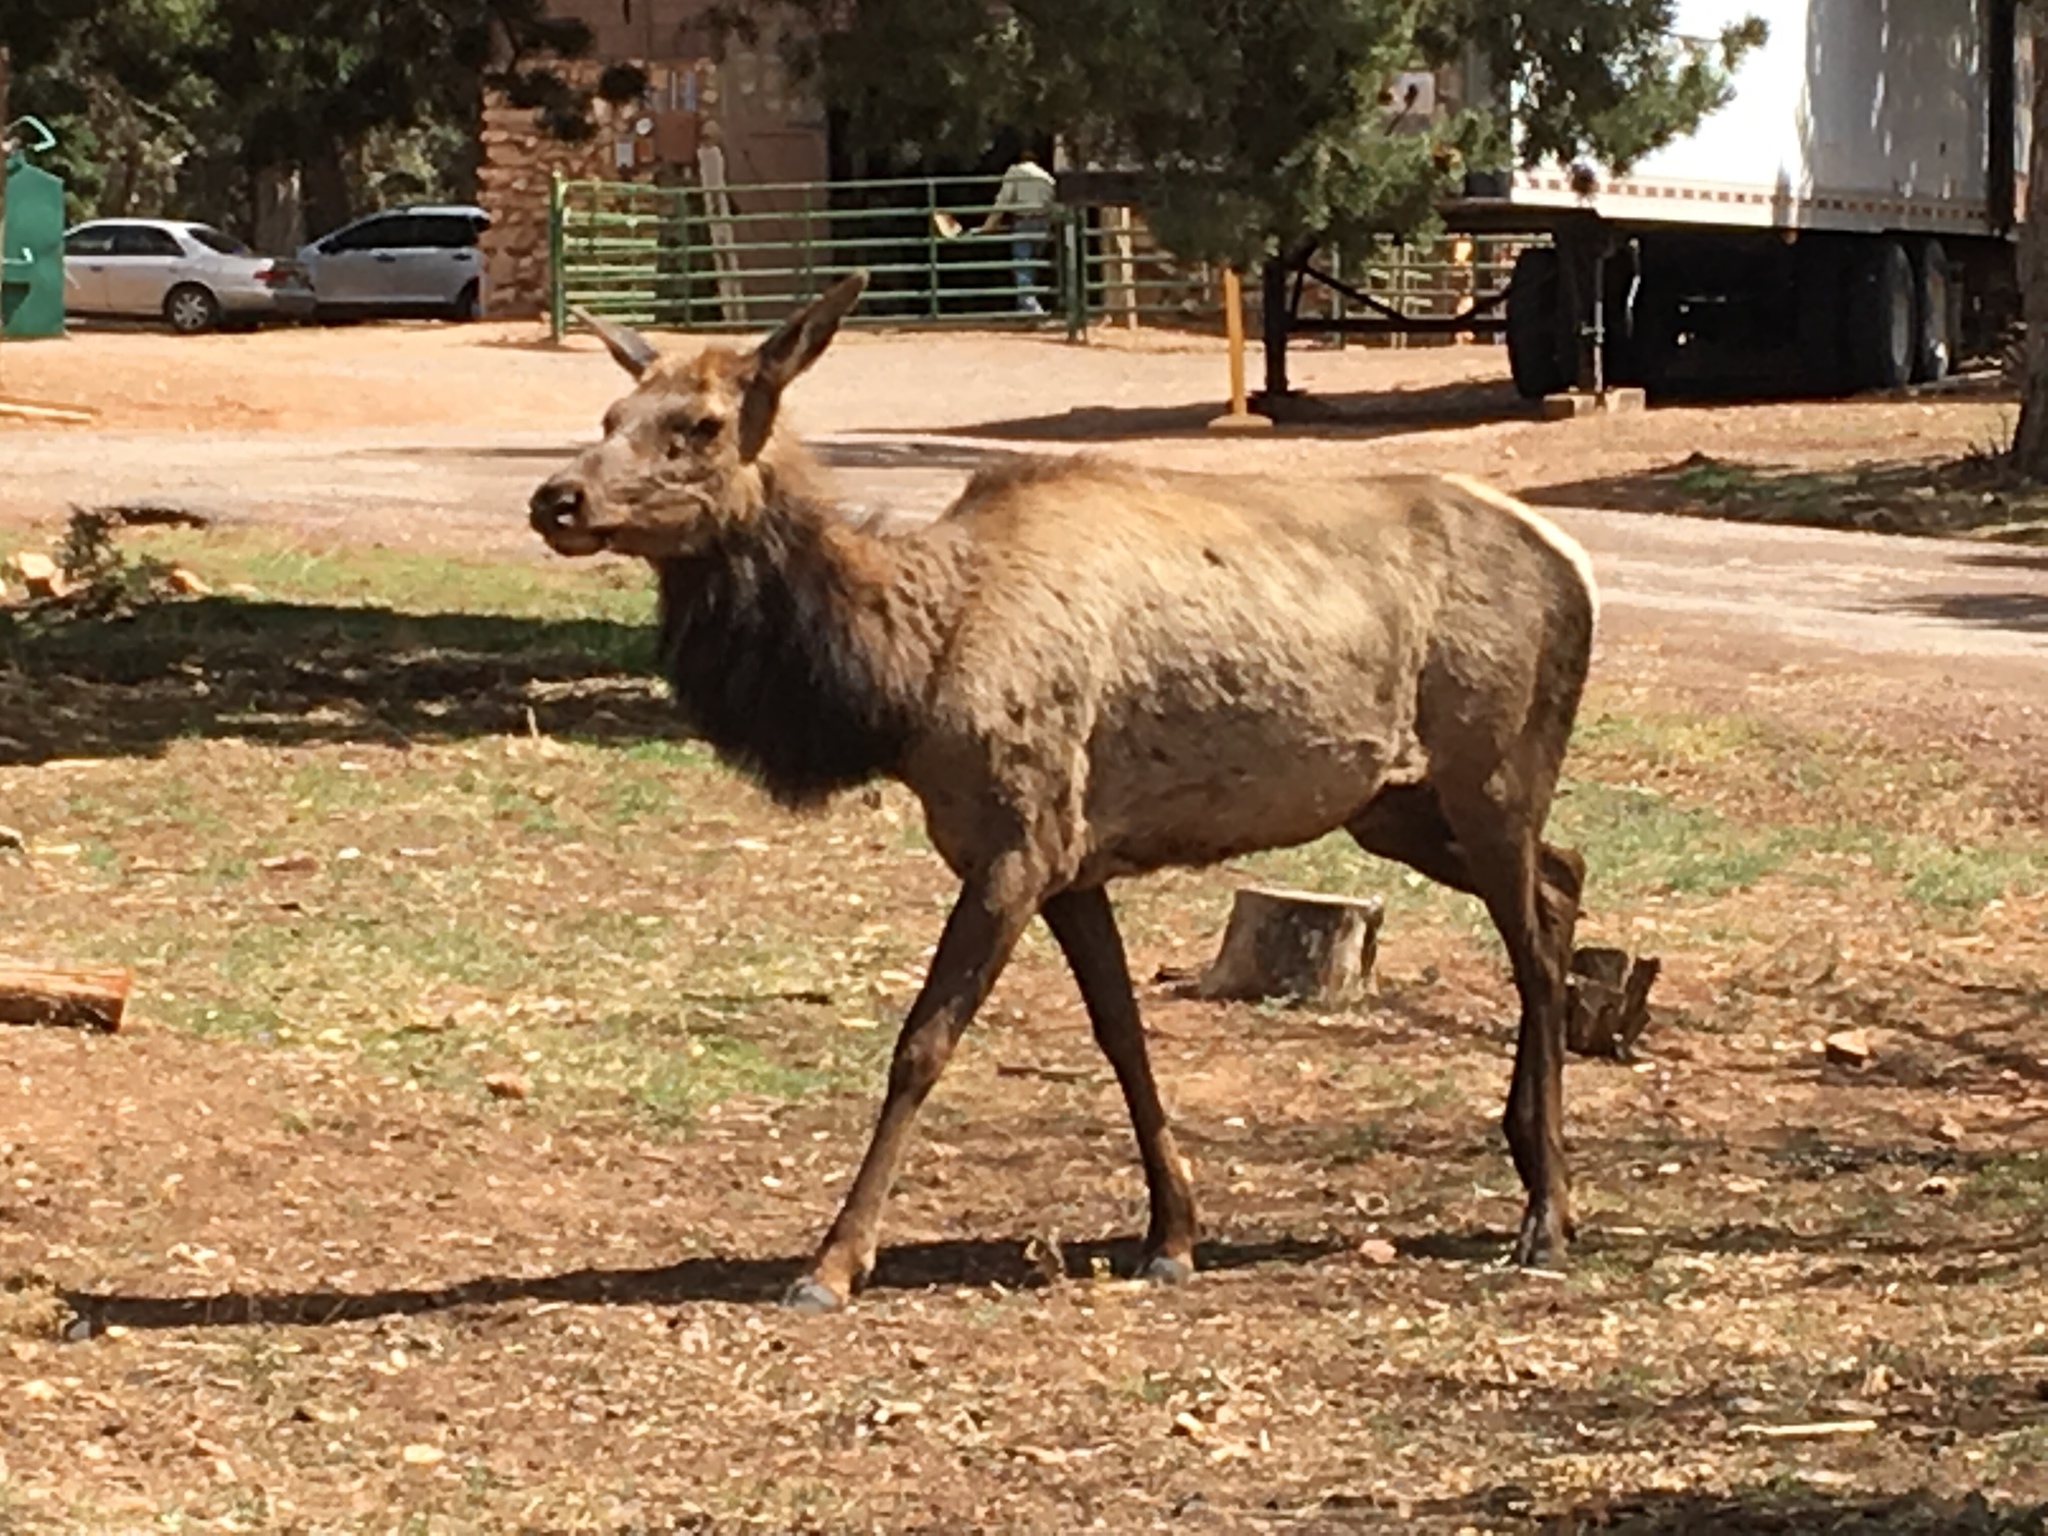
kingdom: Animalia
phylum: Chordata
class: Mammalia
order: Artiodactyla
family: Cervidae
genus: Cervus
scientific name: Cervus elaphus
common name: Red deer
